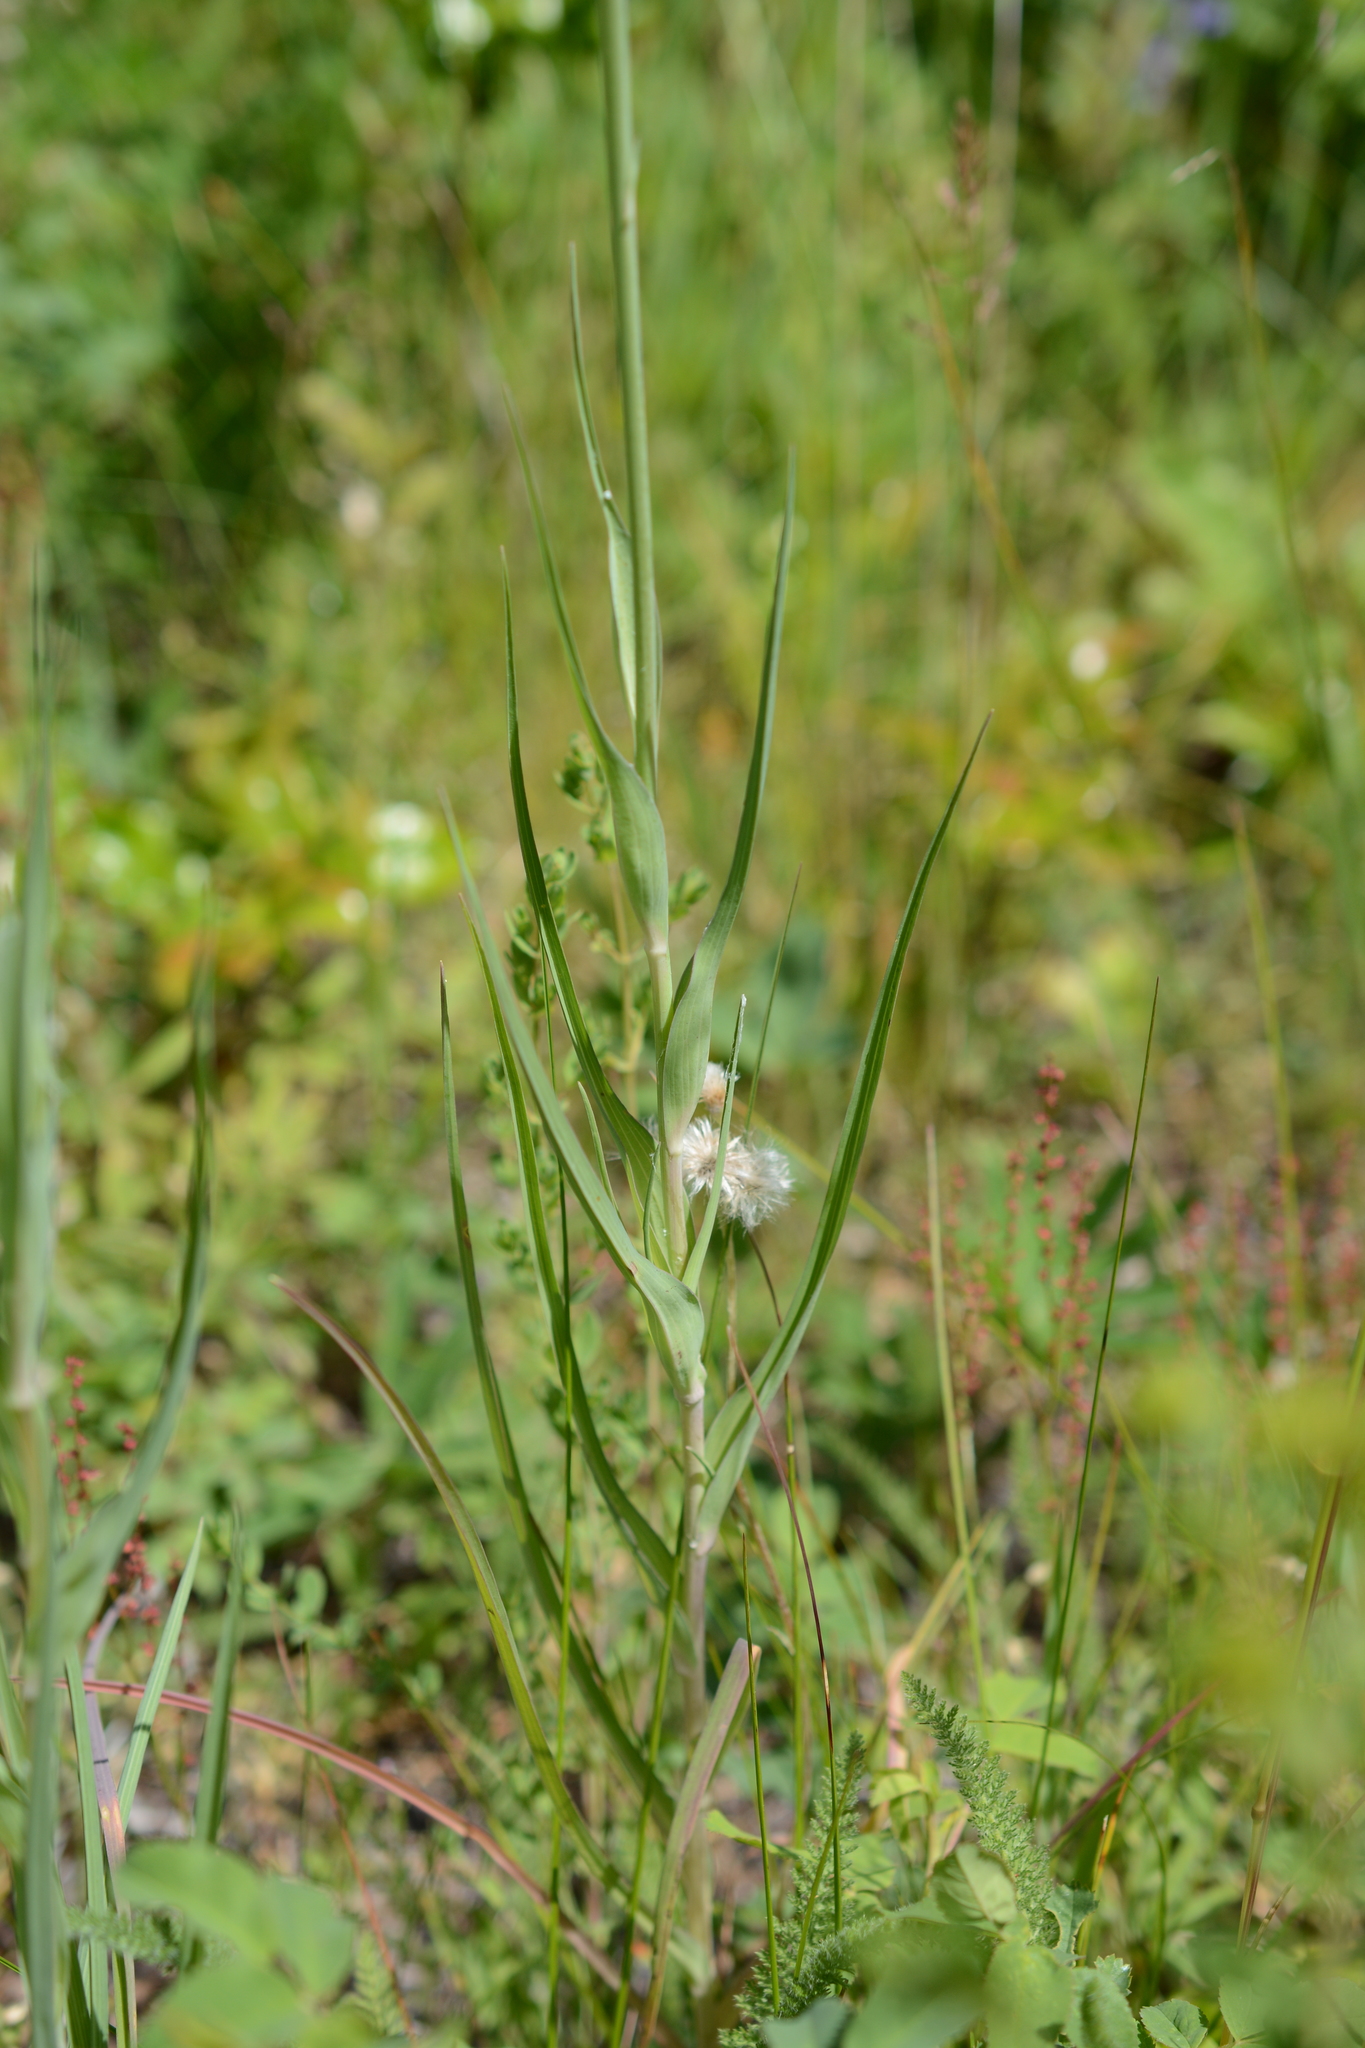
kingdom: Plantae
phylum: Tracheophyta
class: Magnoliopsida
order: Asterales
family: Asteraceae
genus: Tragopogon
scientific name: Tragopogon dubius
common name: Yellow salsify
